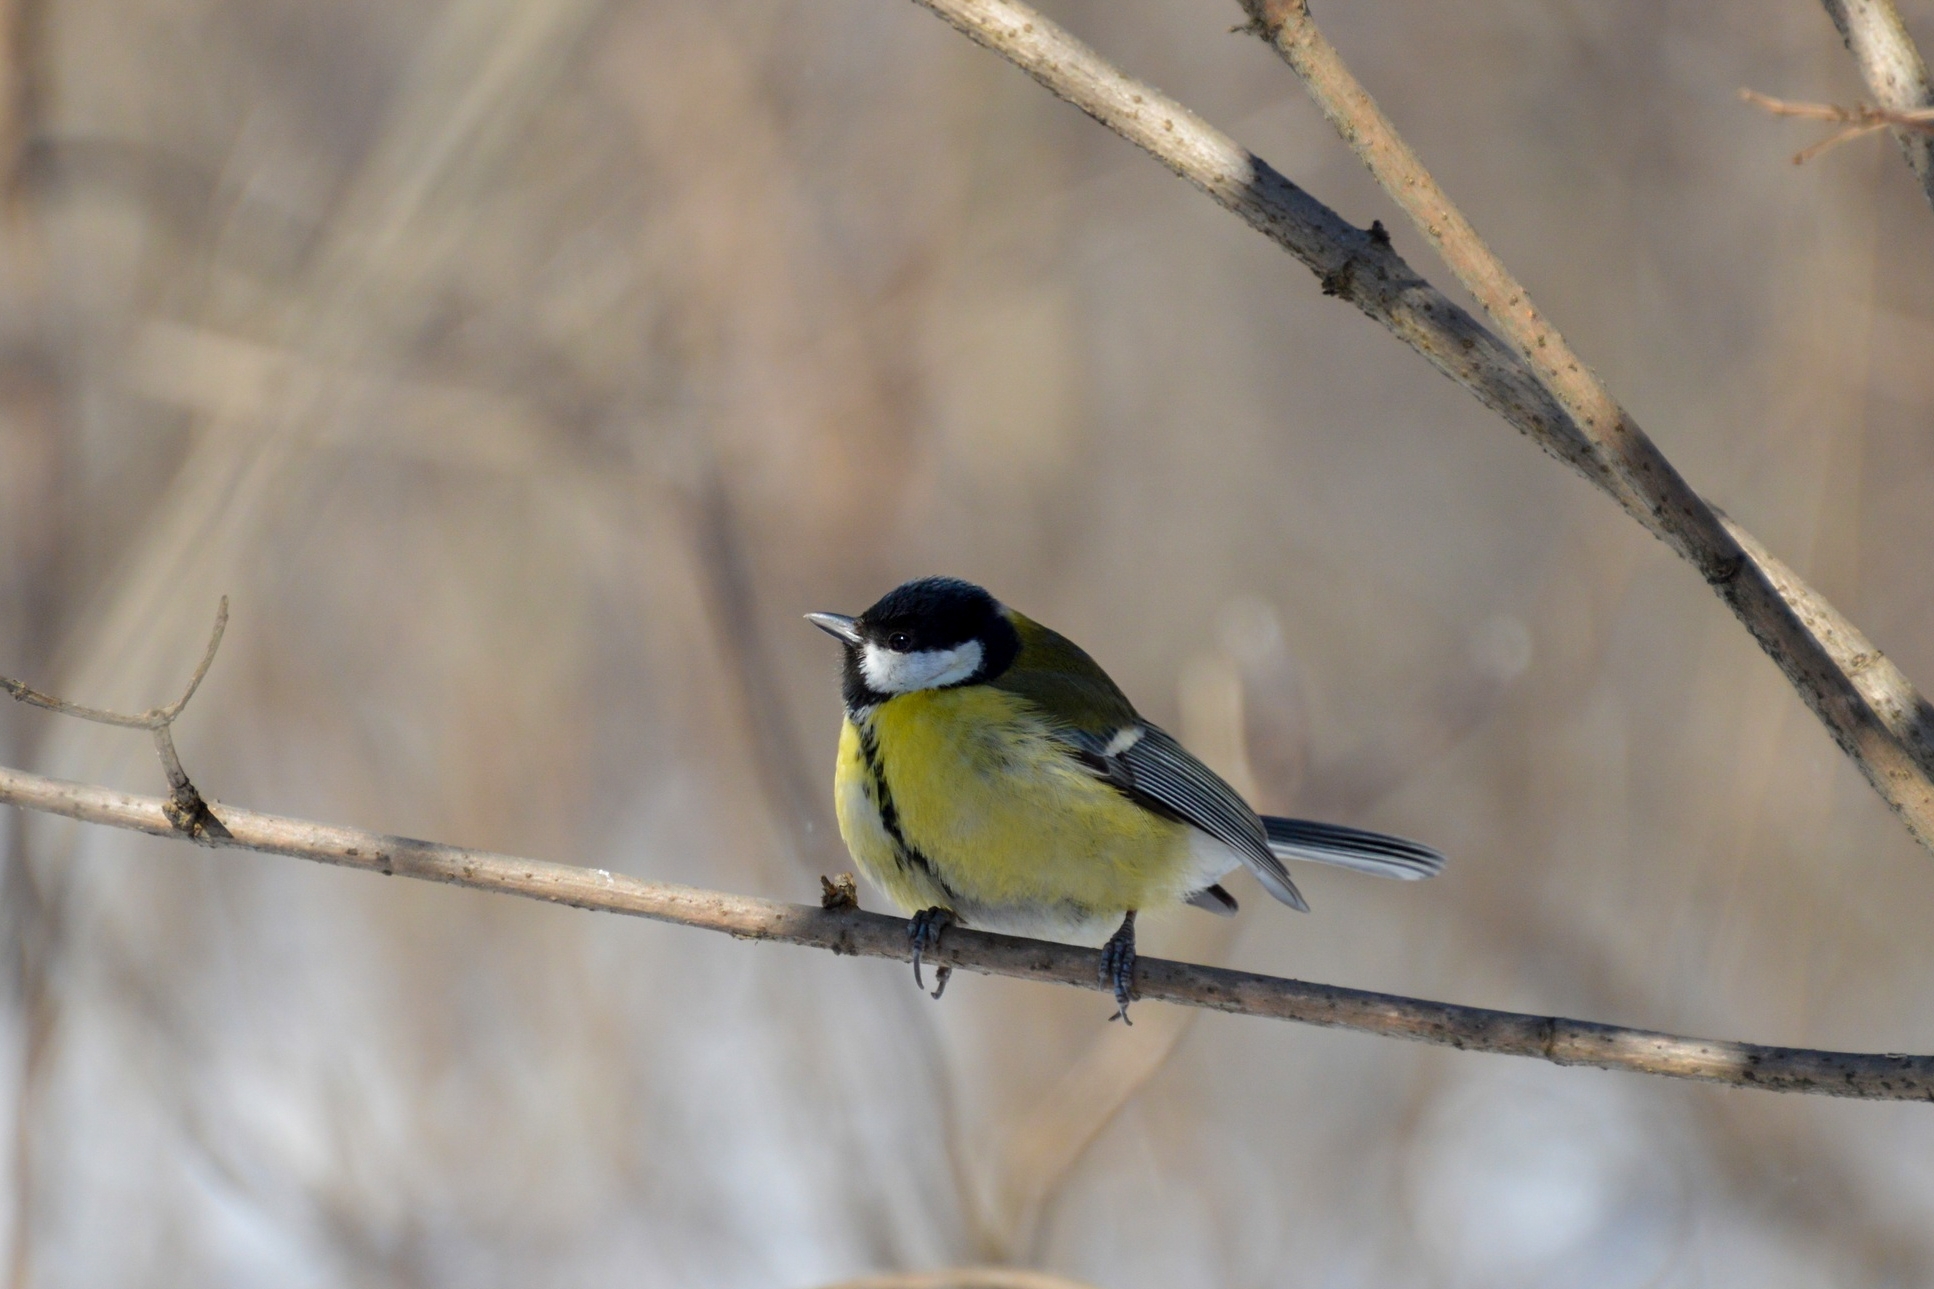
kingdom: Animalia
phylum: Chordata
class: Aves
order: Passeriformes
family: Paridae
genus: Parus
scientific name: Parus major
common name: Great tit
